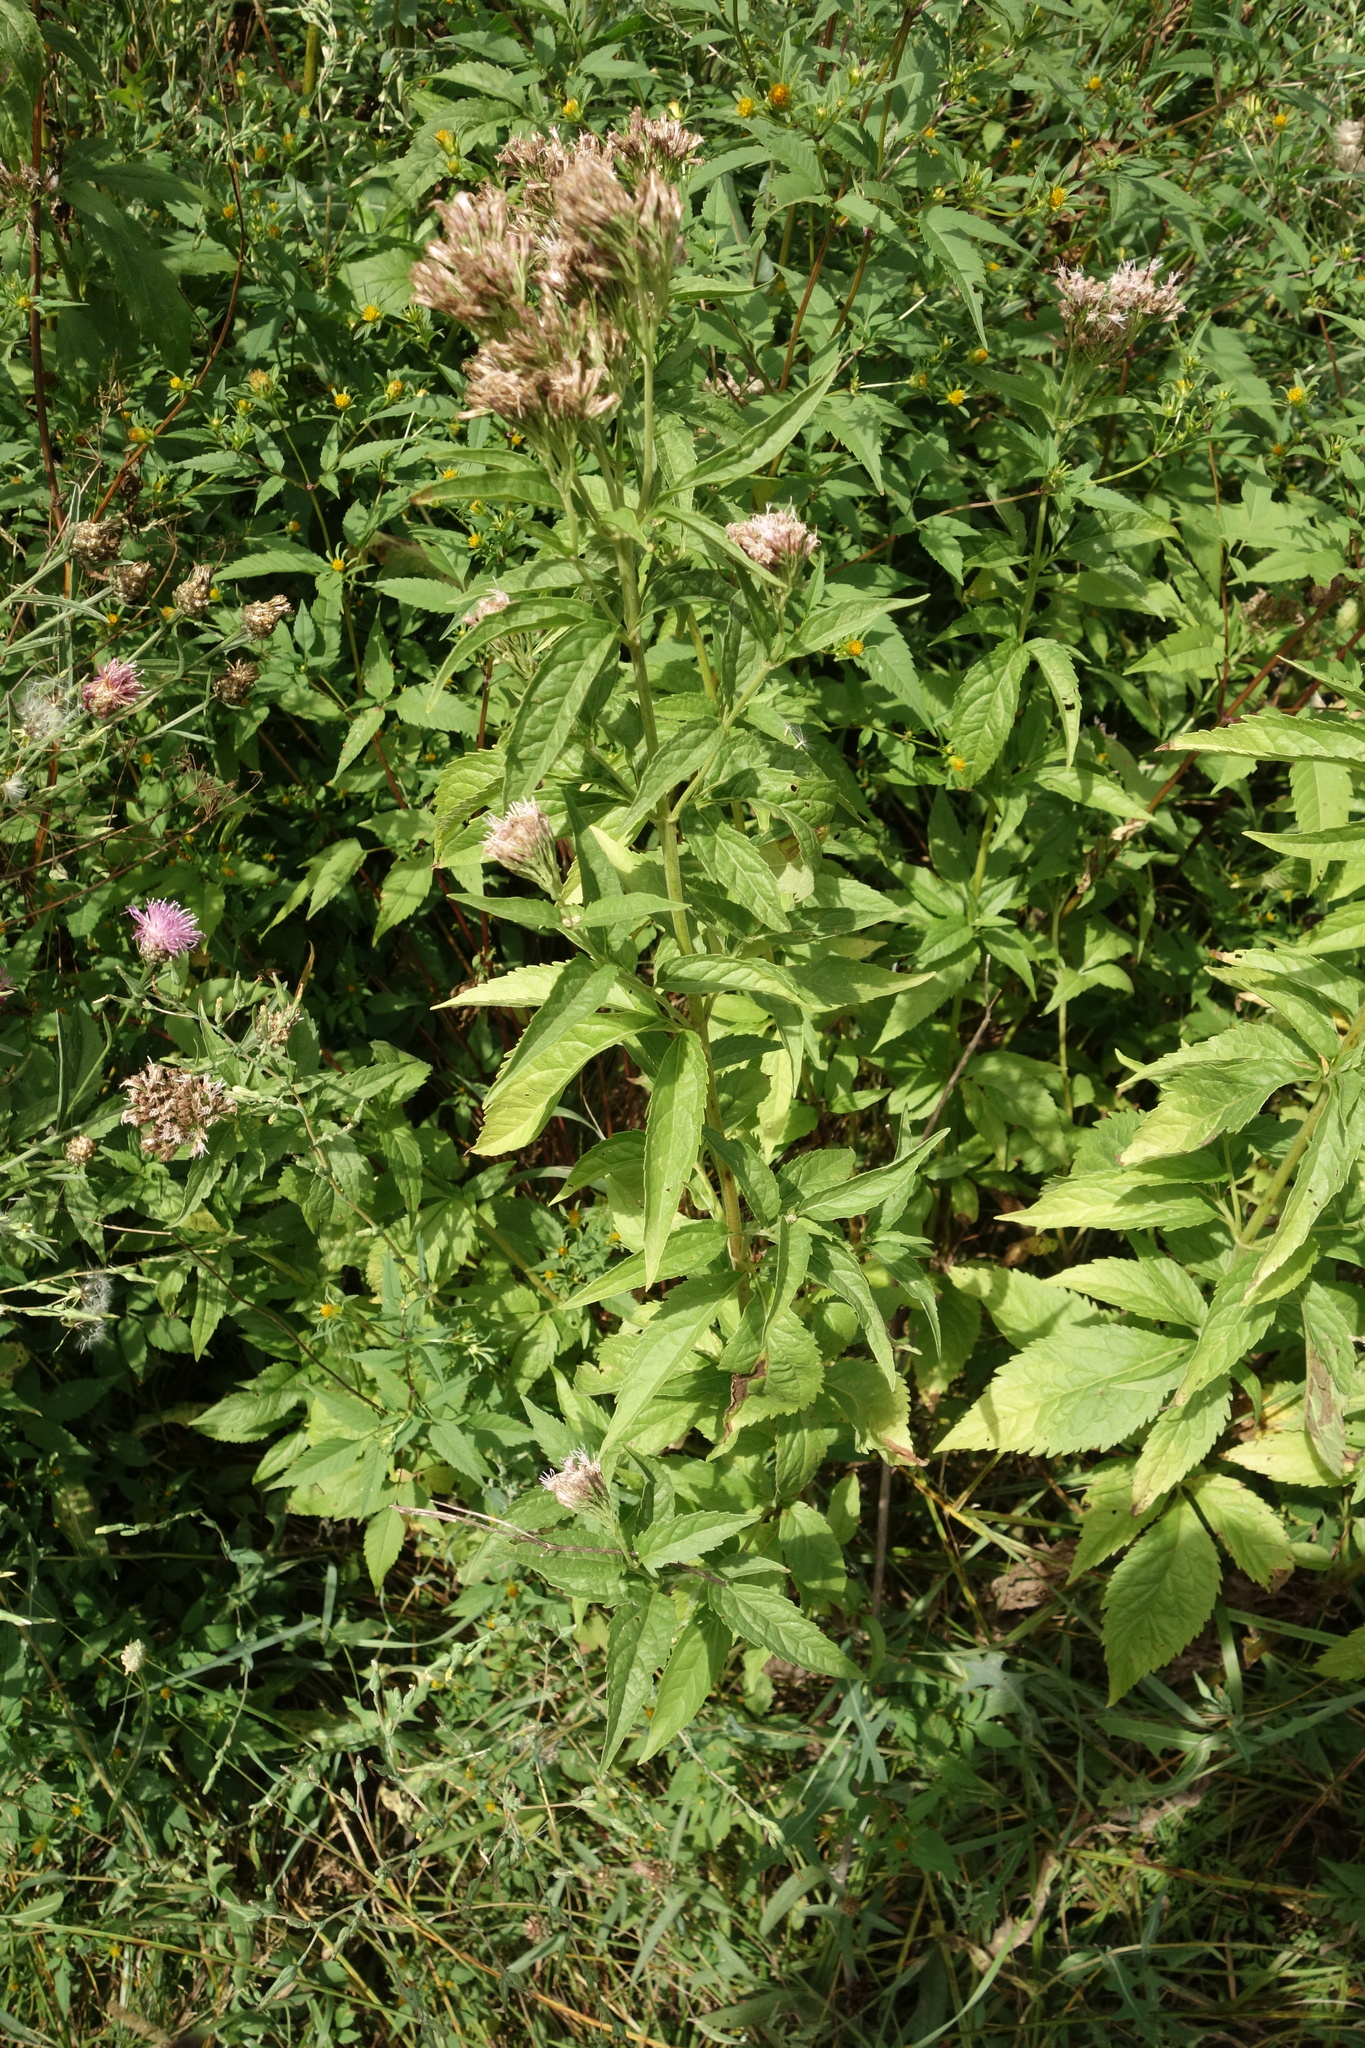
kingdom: Plantae
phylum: Tracheophyta
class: Magnoliopsida
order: Asterales
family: Asteraceae
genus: Eupatorium
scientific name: Eupatorium cannabinum
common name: Hemp-agrimony
